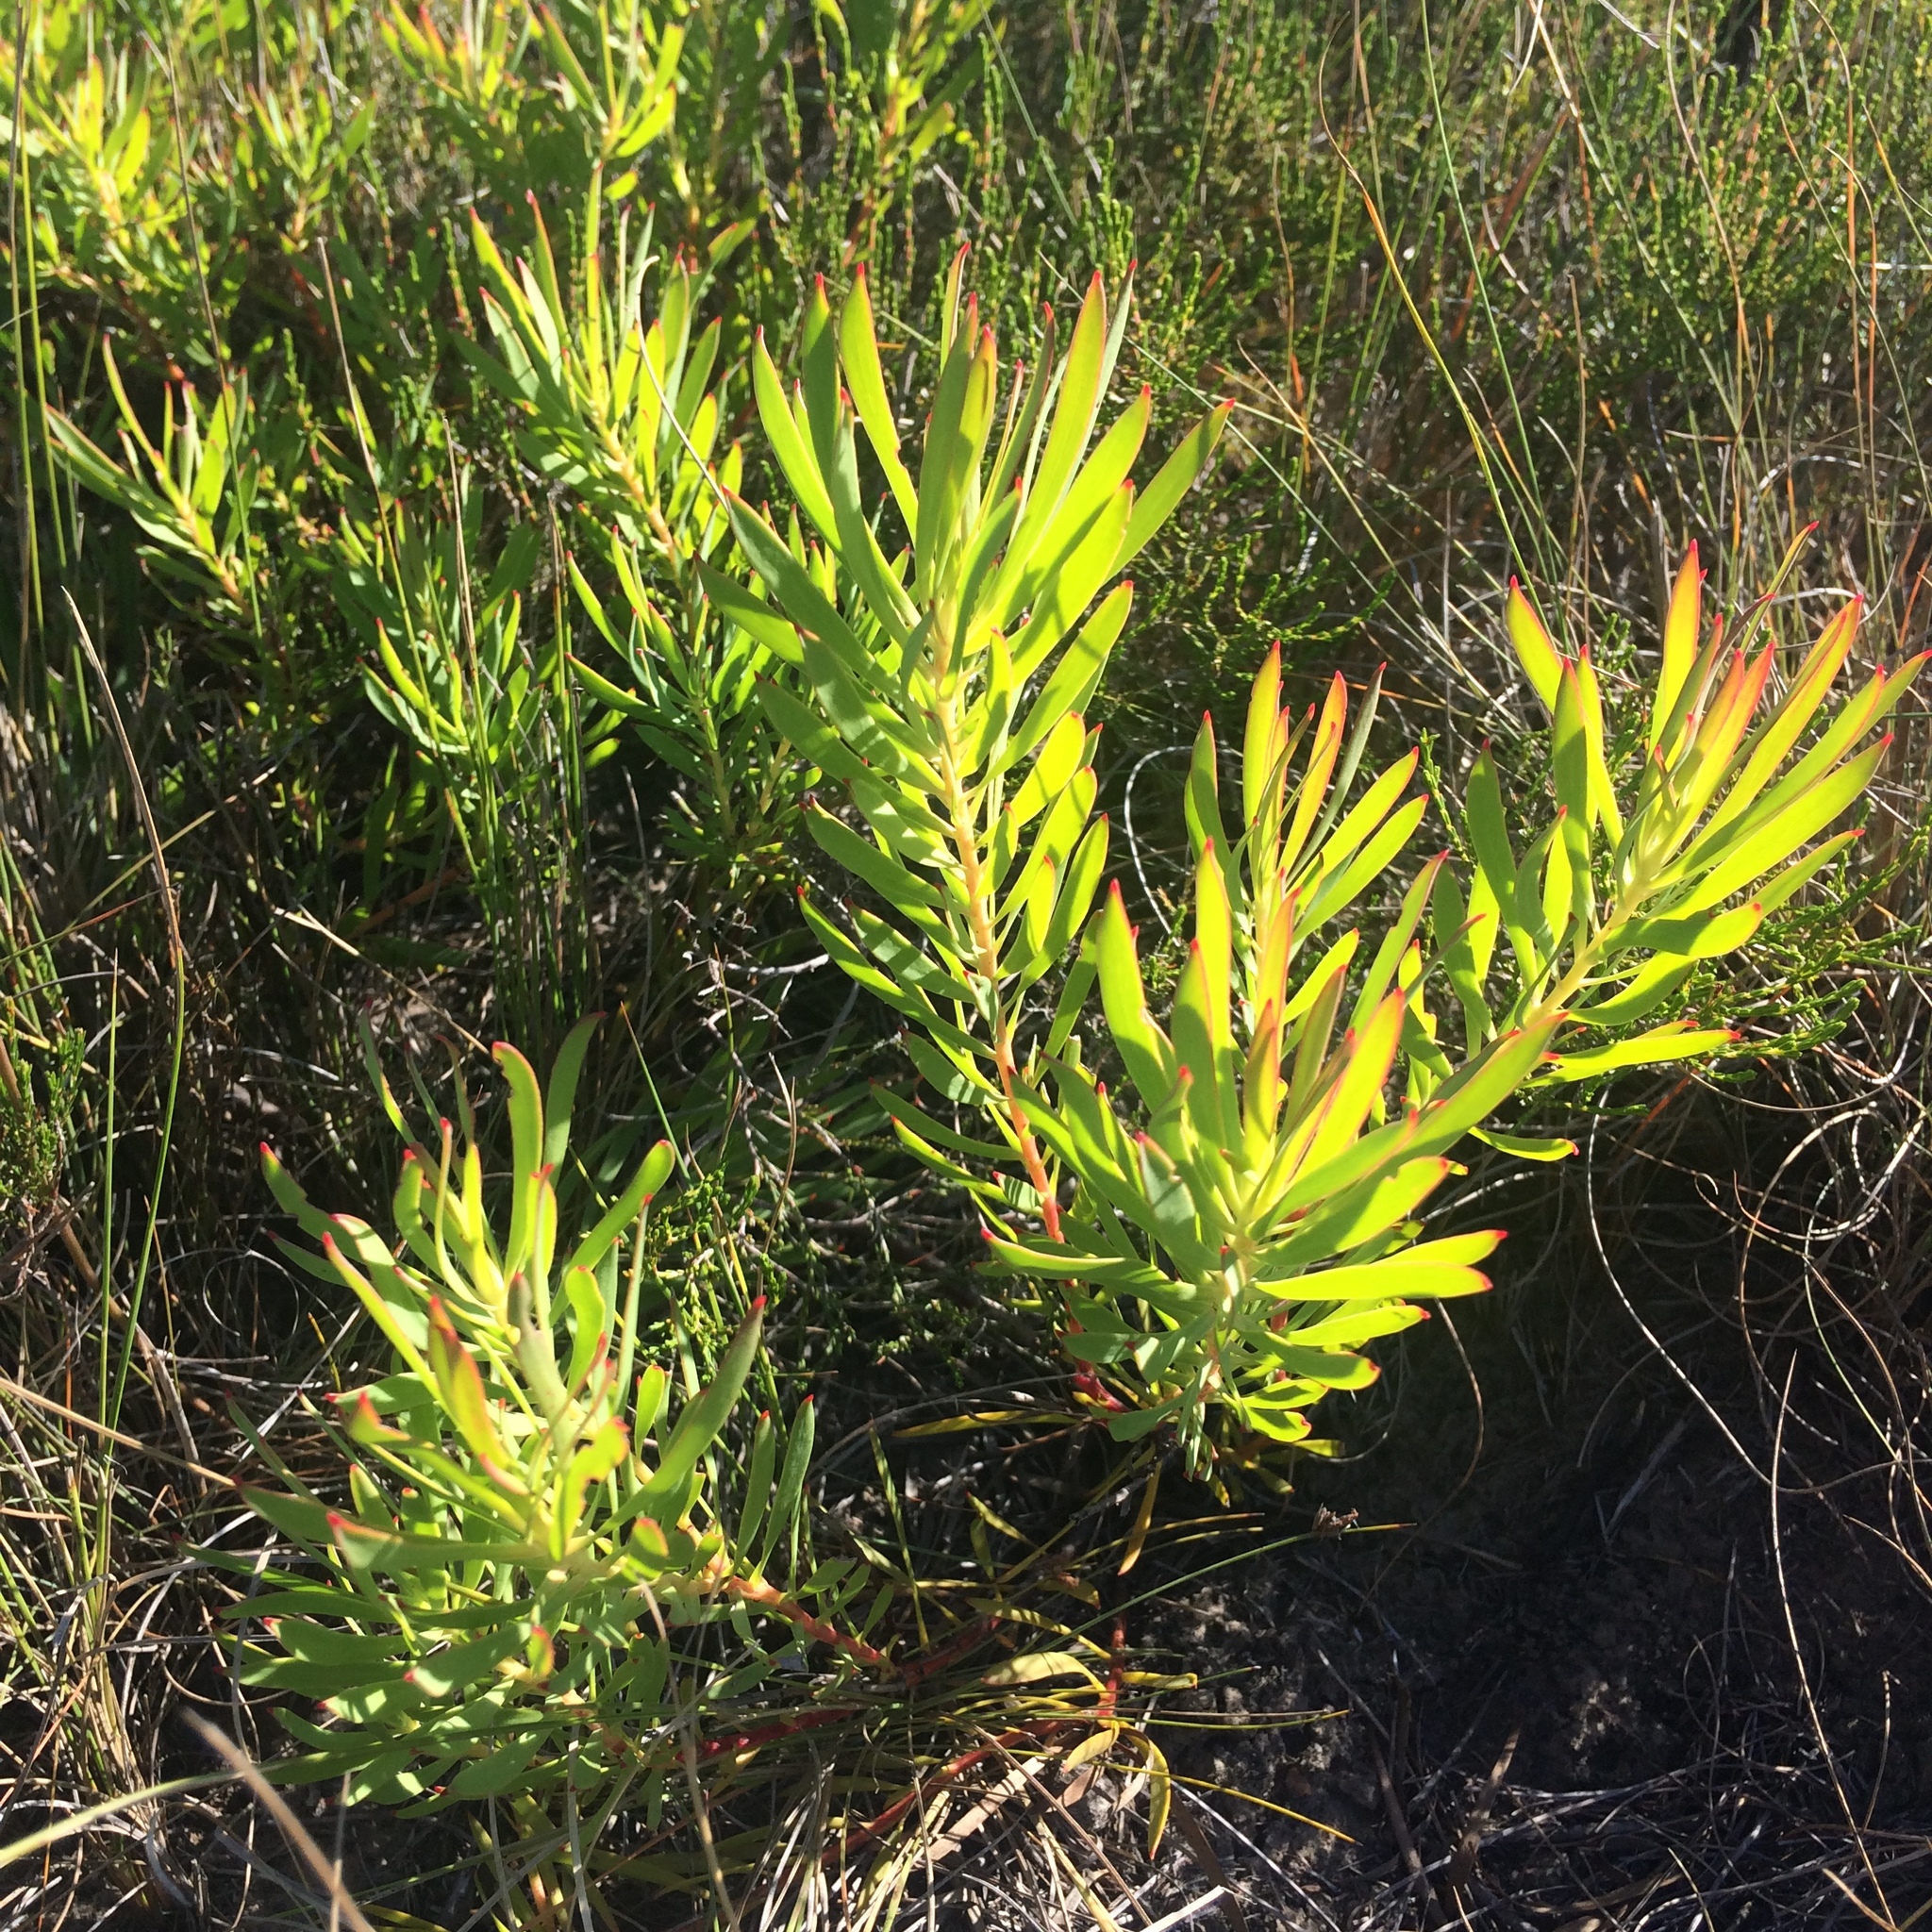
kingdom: Plantae
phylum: Tracheophyta
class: Magnoliopsida
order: Proteales
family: Proteaceae
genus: Leucadendron
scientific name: Leucadendron salignum
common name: Common sunshine conebush
